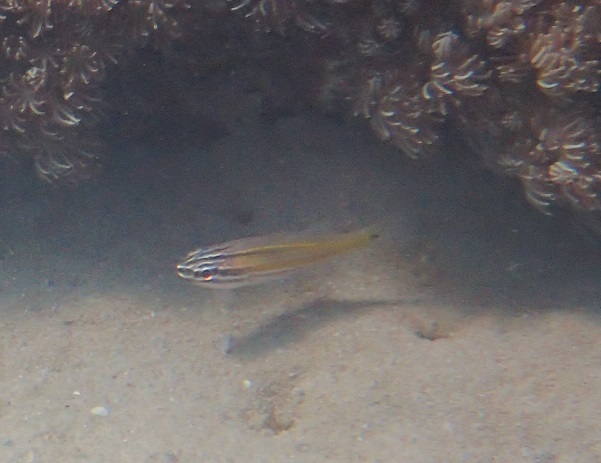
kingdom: Animalia
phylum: Chordata
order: Perciformes
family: Apogonidae
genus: Ostorhinchus
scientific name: Ostorhinchus cavitensis
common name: Cavite cardinalfish
